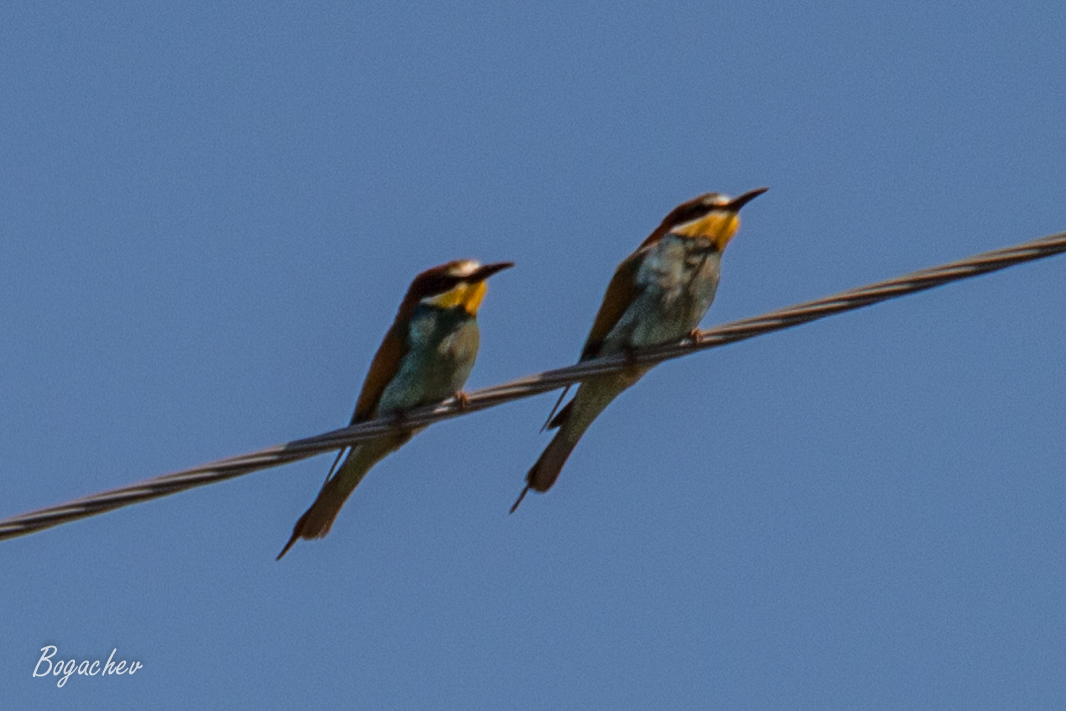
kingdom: Animalia
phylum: Chordata
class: Aves
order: Coraciiformes
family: Meropidae
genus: Merops
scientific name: Merops apiaster
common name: European bee-eater
